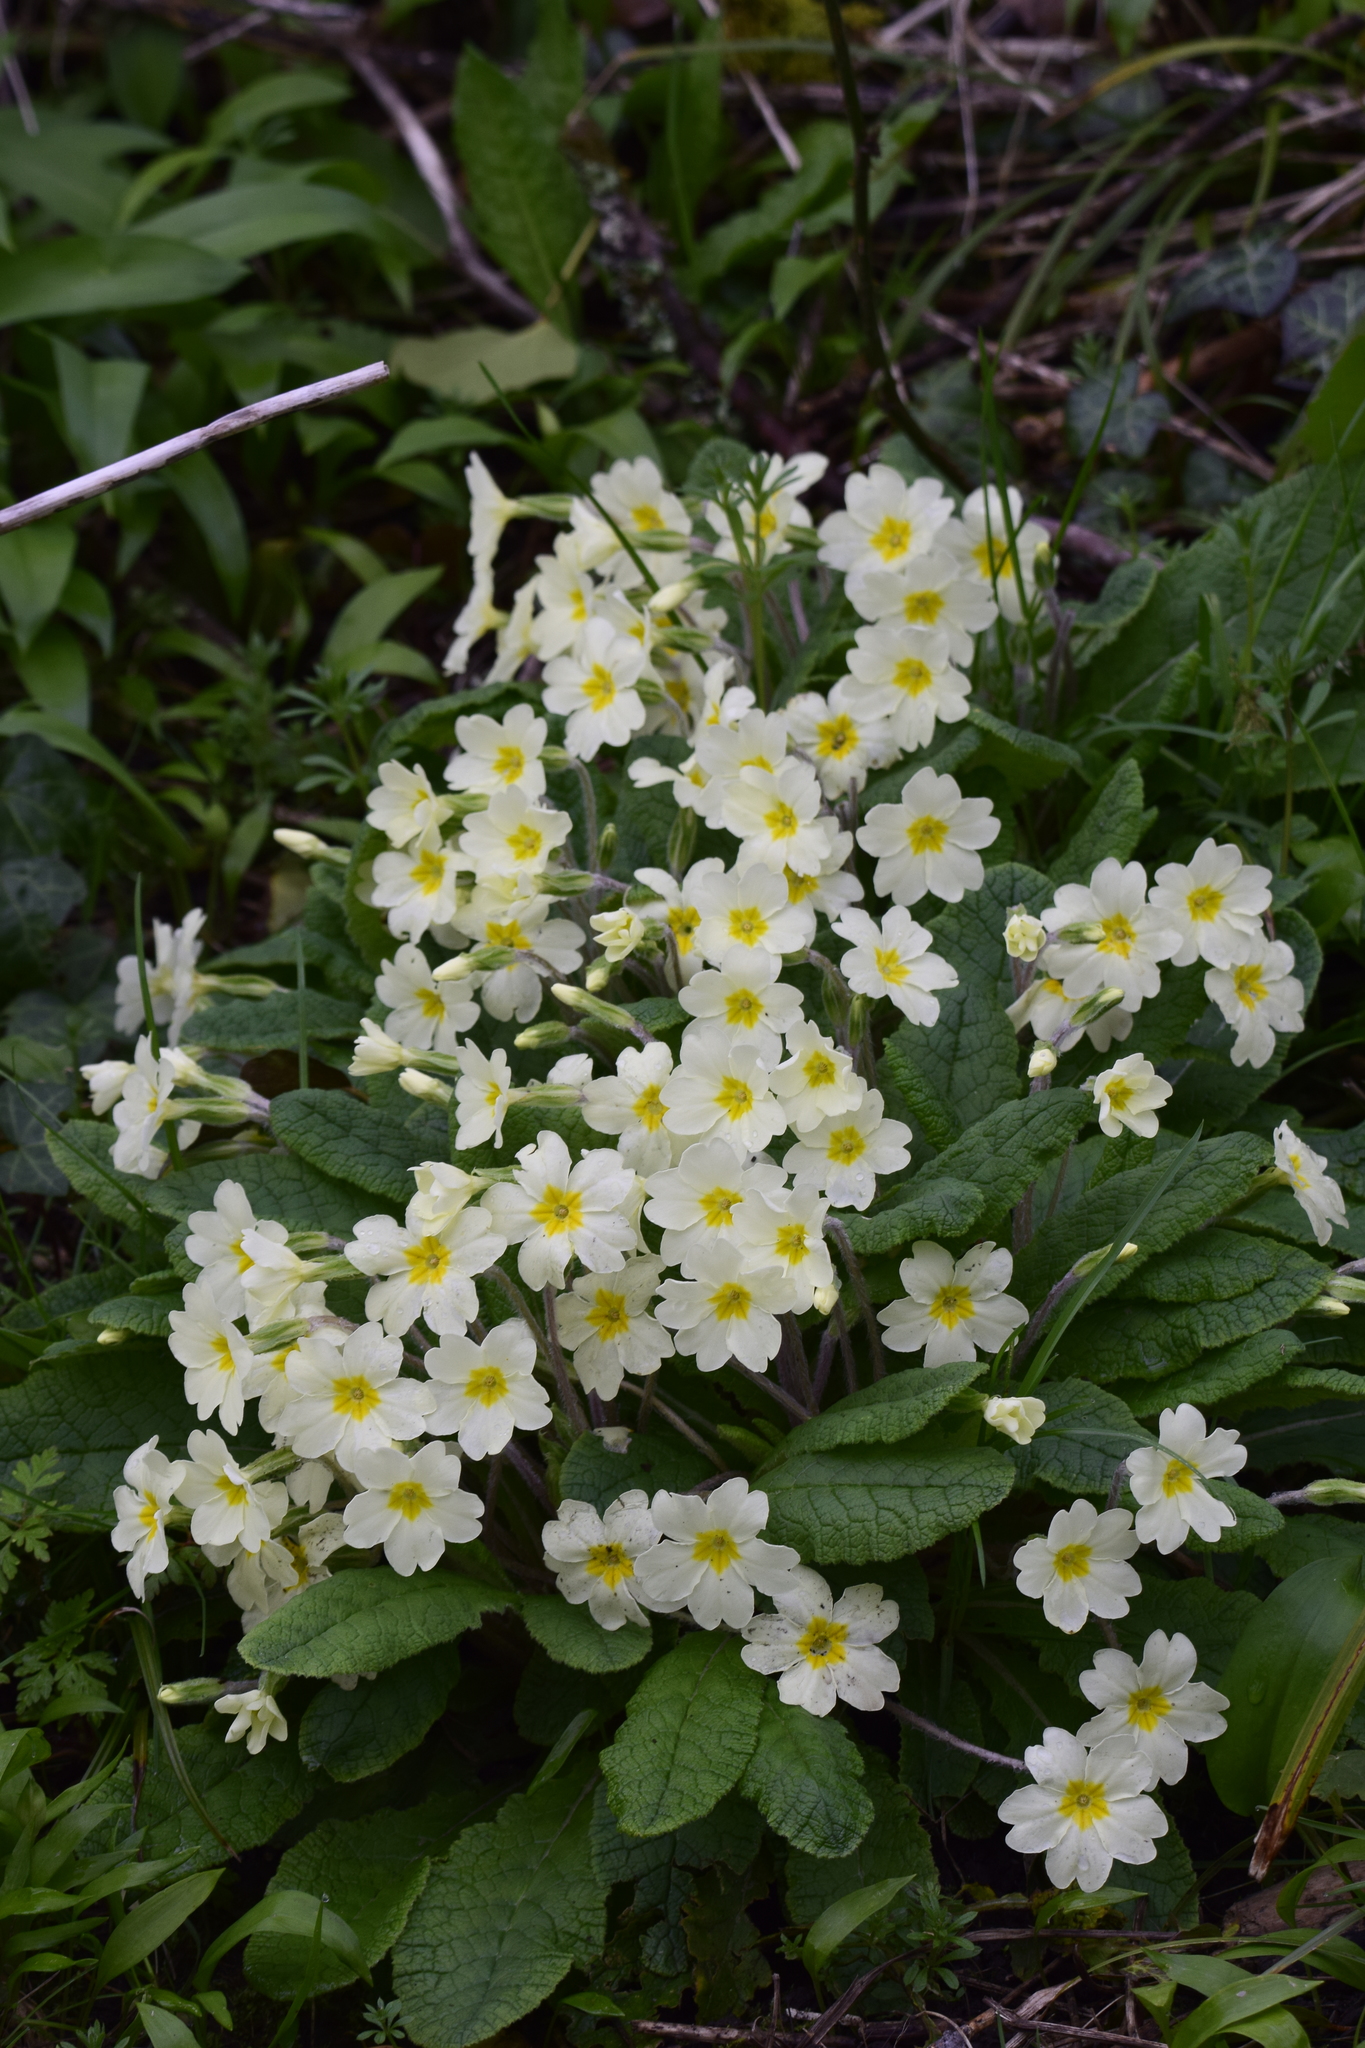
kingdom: Plantae
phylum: Tracheophyta
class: Magnoliopsida
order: Ericales
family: Primulaceae
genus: Primula
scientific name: Primula vulgaris
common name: Primrose
